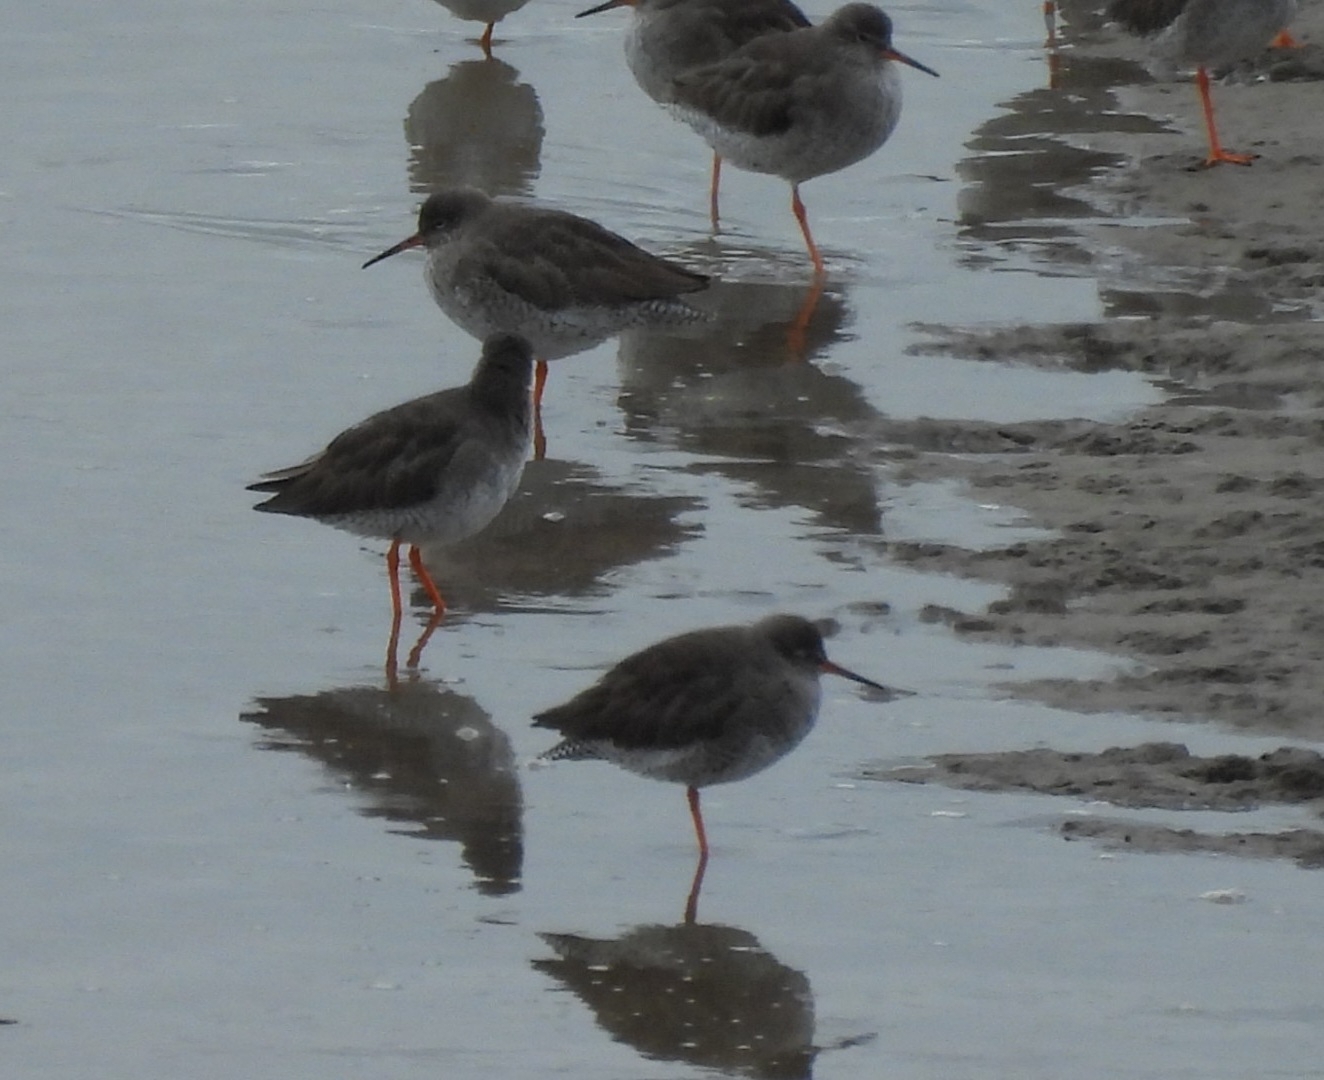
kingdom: Animalia
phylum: Chordata
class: Aves
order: Charadriiformes
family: Scolopacidae
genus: Tringa
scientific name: Tringa totanus
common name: Common redshank
